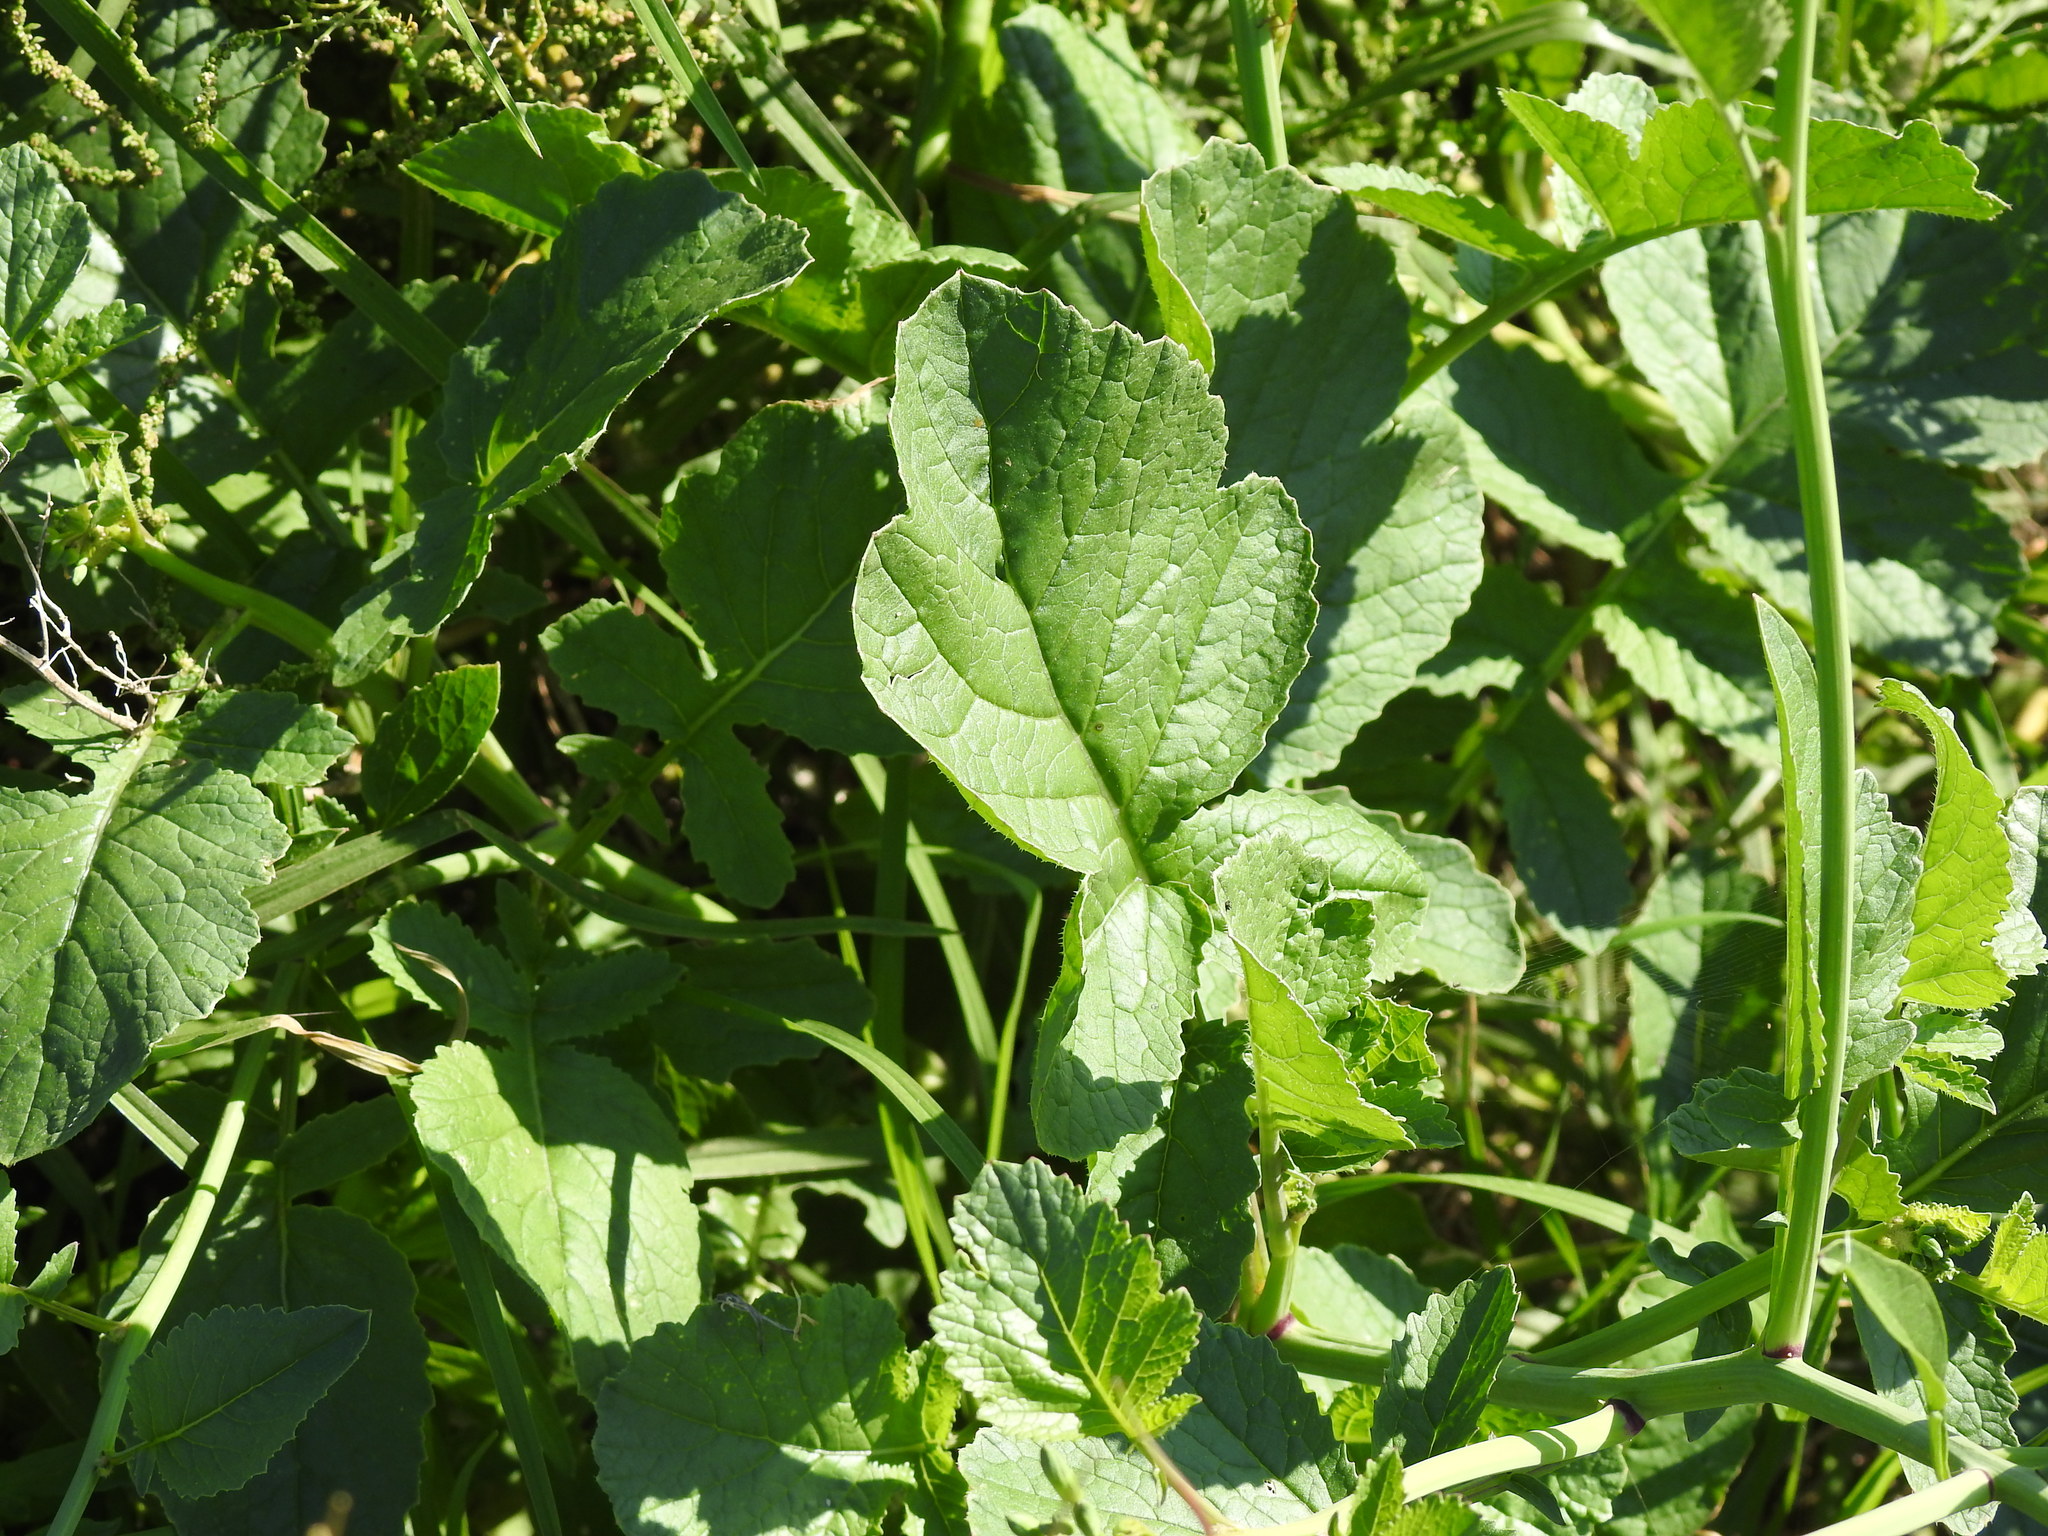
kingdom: Plantae
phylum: Tracheophyta
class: Magnoliopsida
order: Brassicales
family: Brassicaceae
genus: Raphanus
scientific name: Raphanus sativus
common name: Cultivated radish
